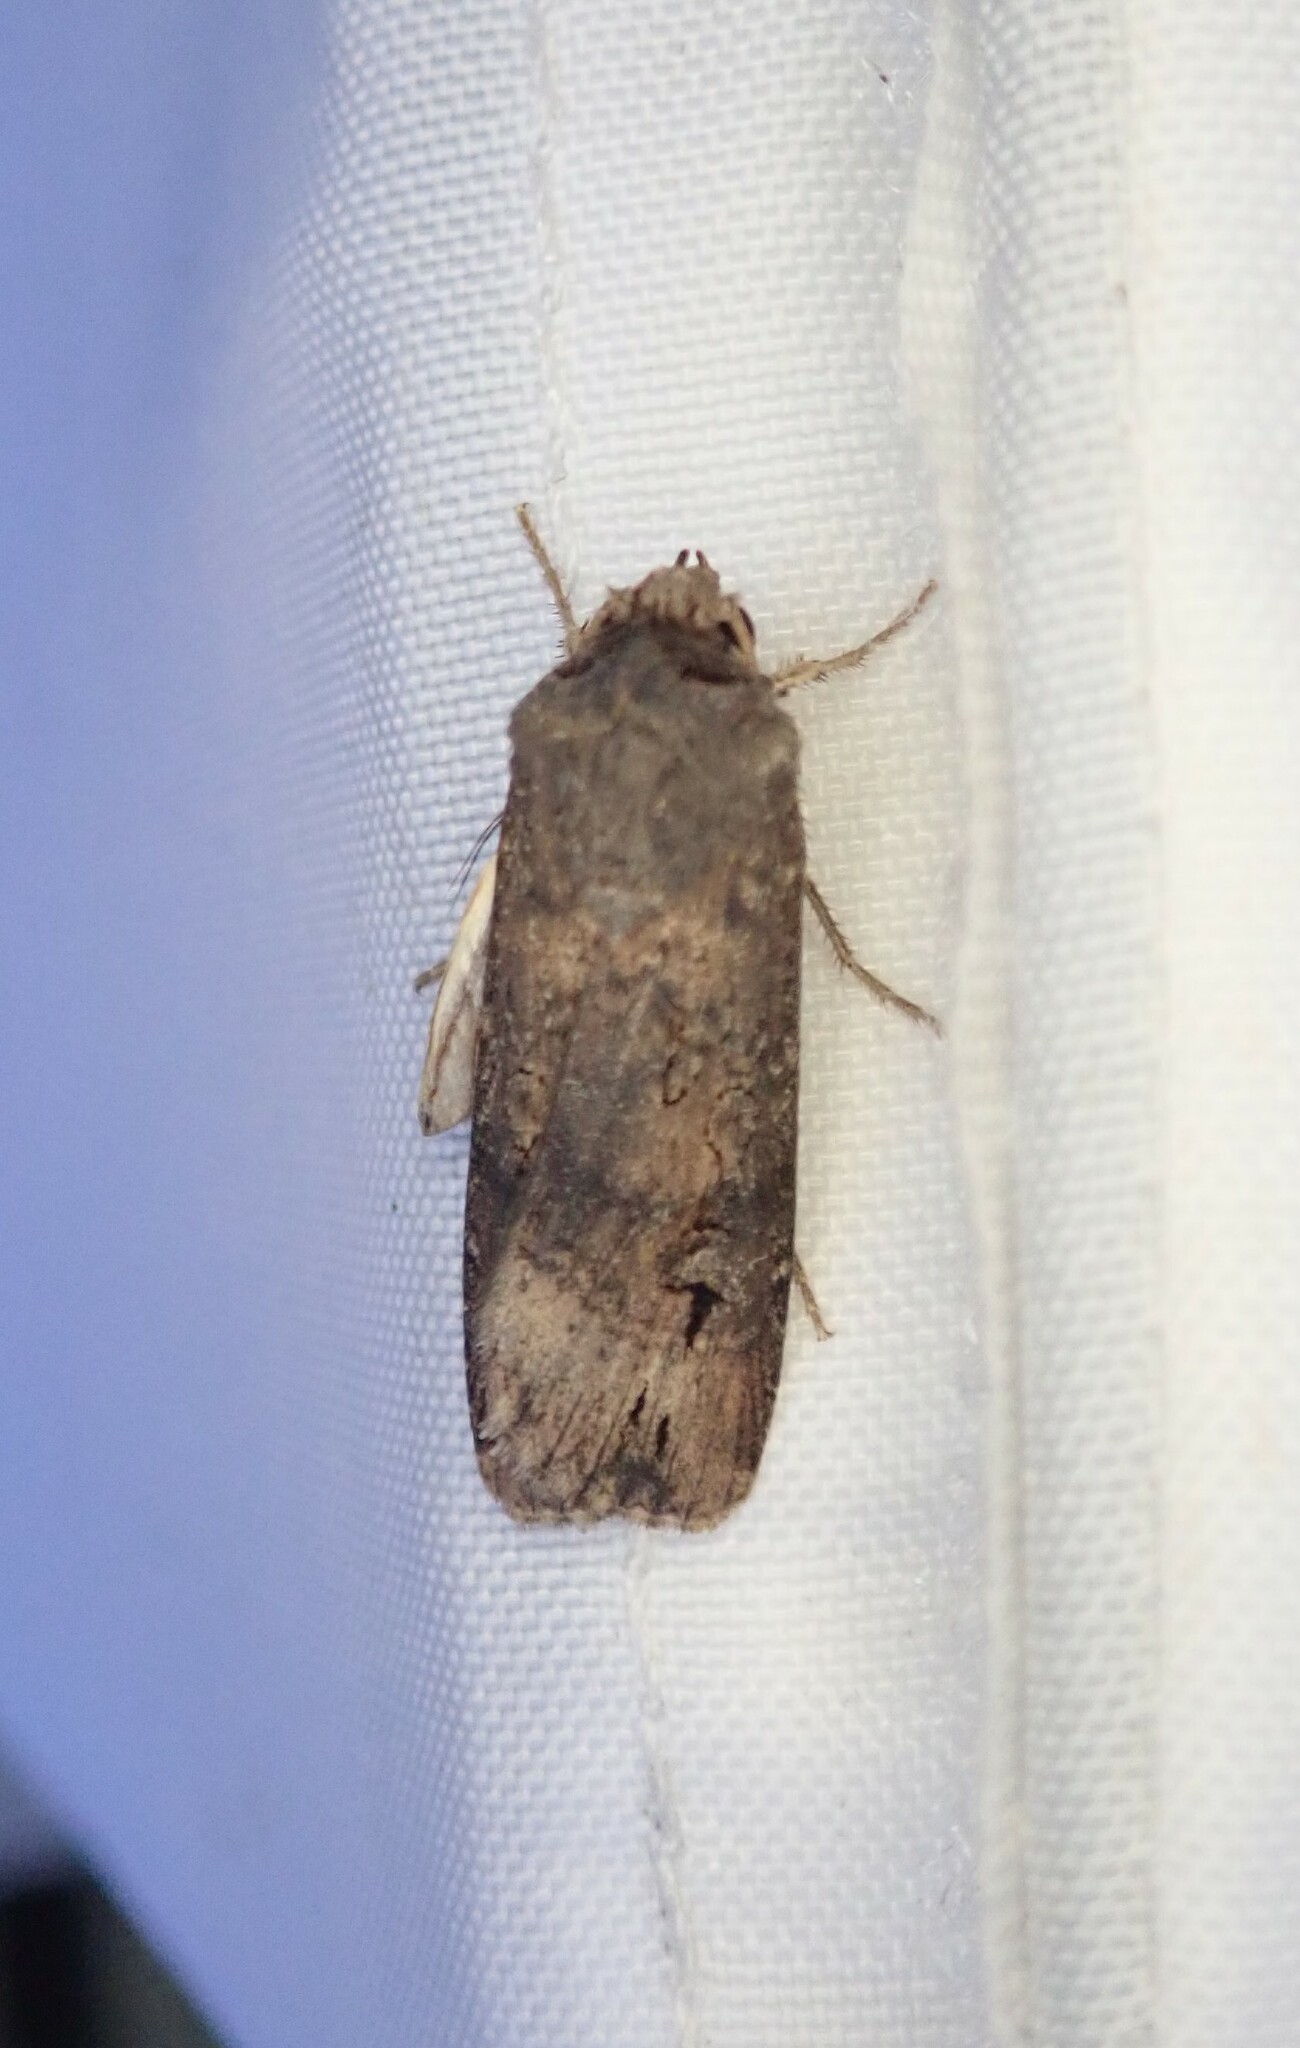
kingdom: Animalia
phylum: Arthropoda
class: Insecta
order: Lepidoptera
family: Noctuidae
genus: Agrotis
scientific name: Agrotis segetum
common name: Turnip moth
